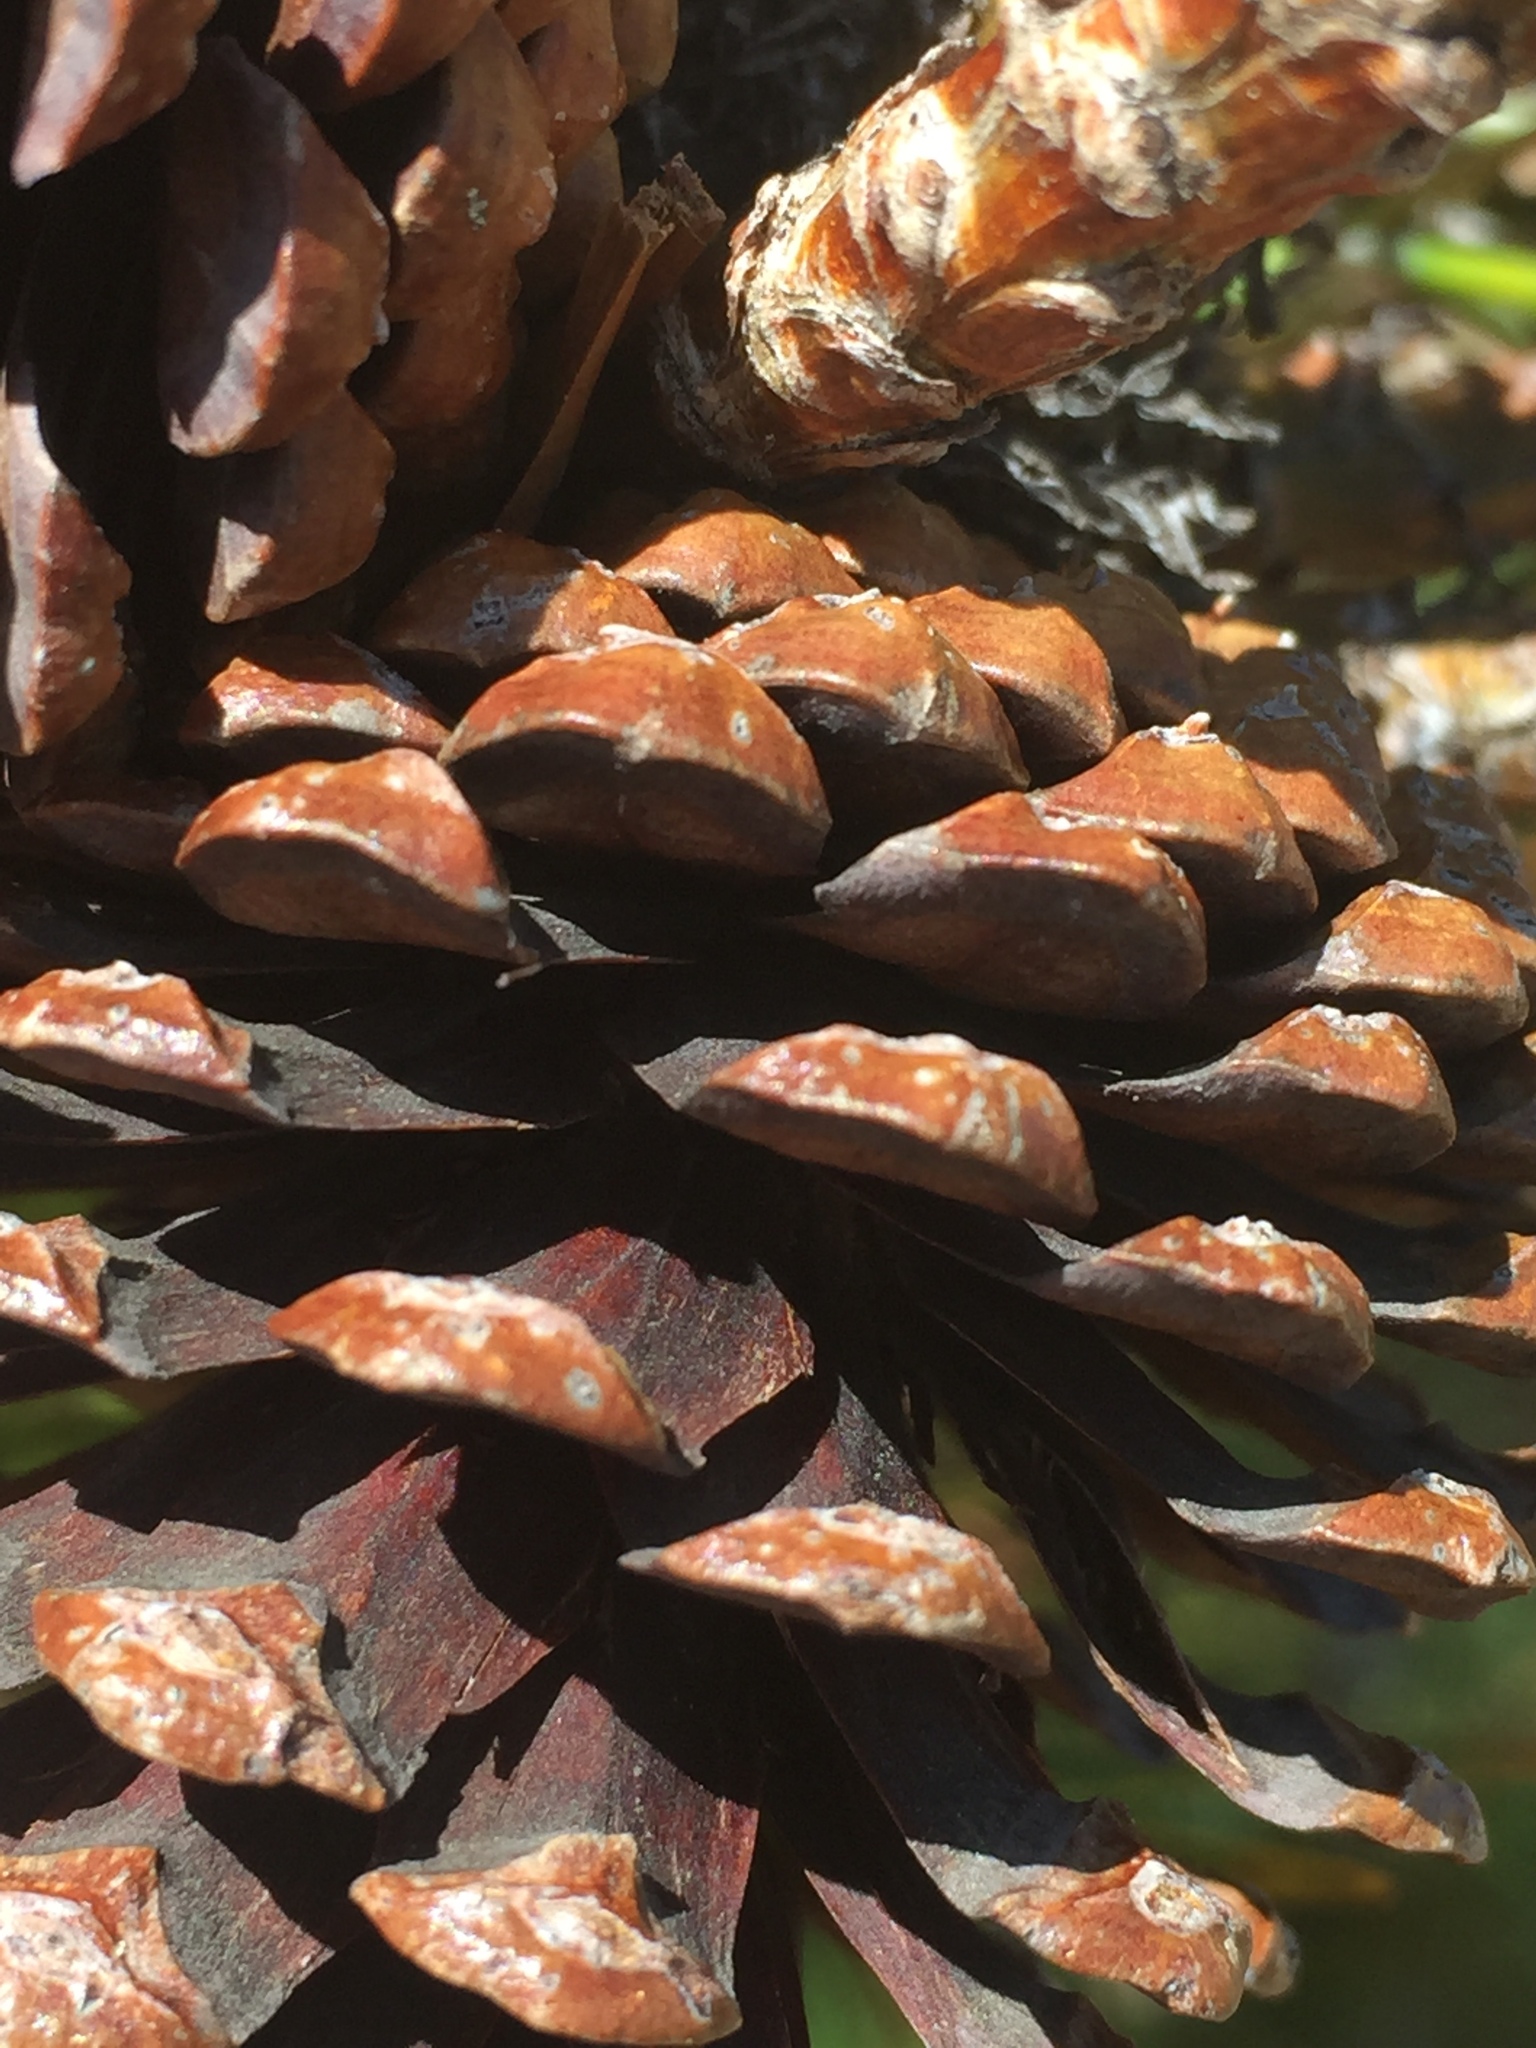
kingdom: Plantae
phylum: Tracheophyta
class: Pinopsida
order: Pinales
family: Pinaceae
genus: Pinus
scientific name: Pinus contorta
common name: Lodgepole pine
